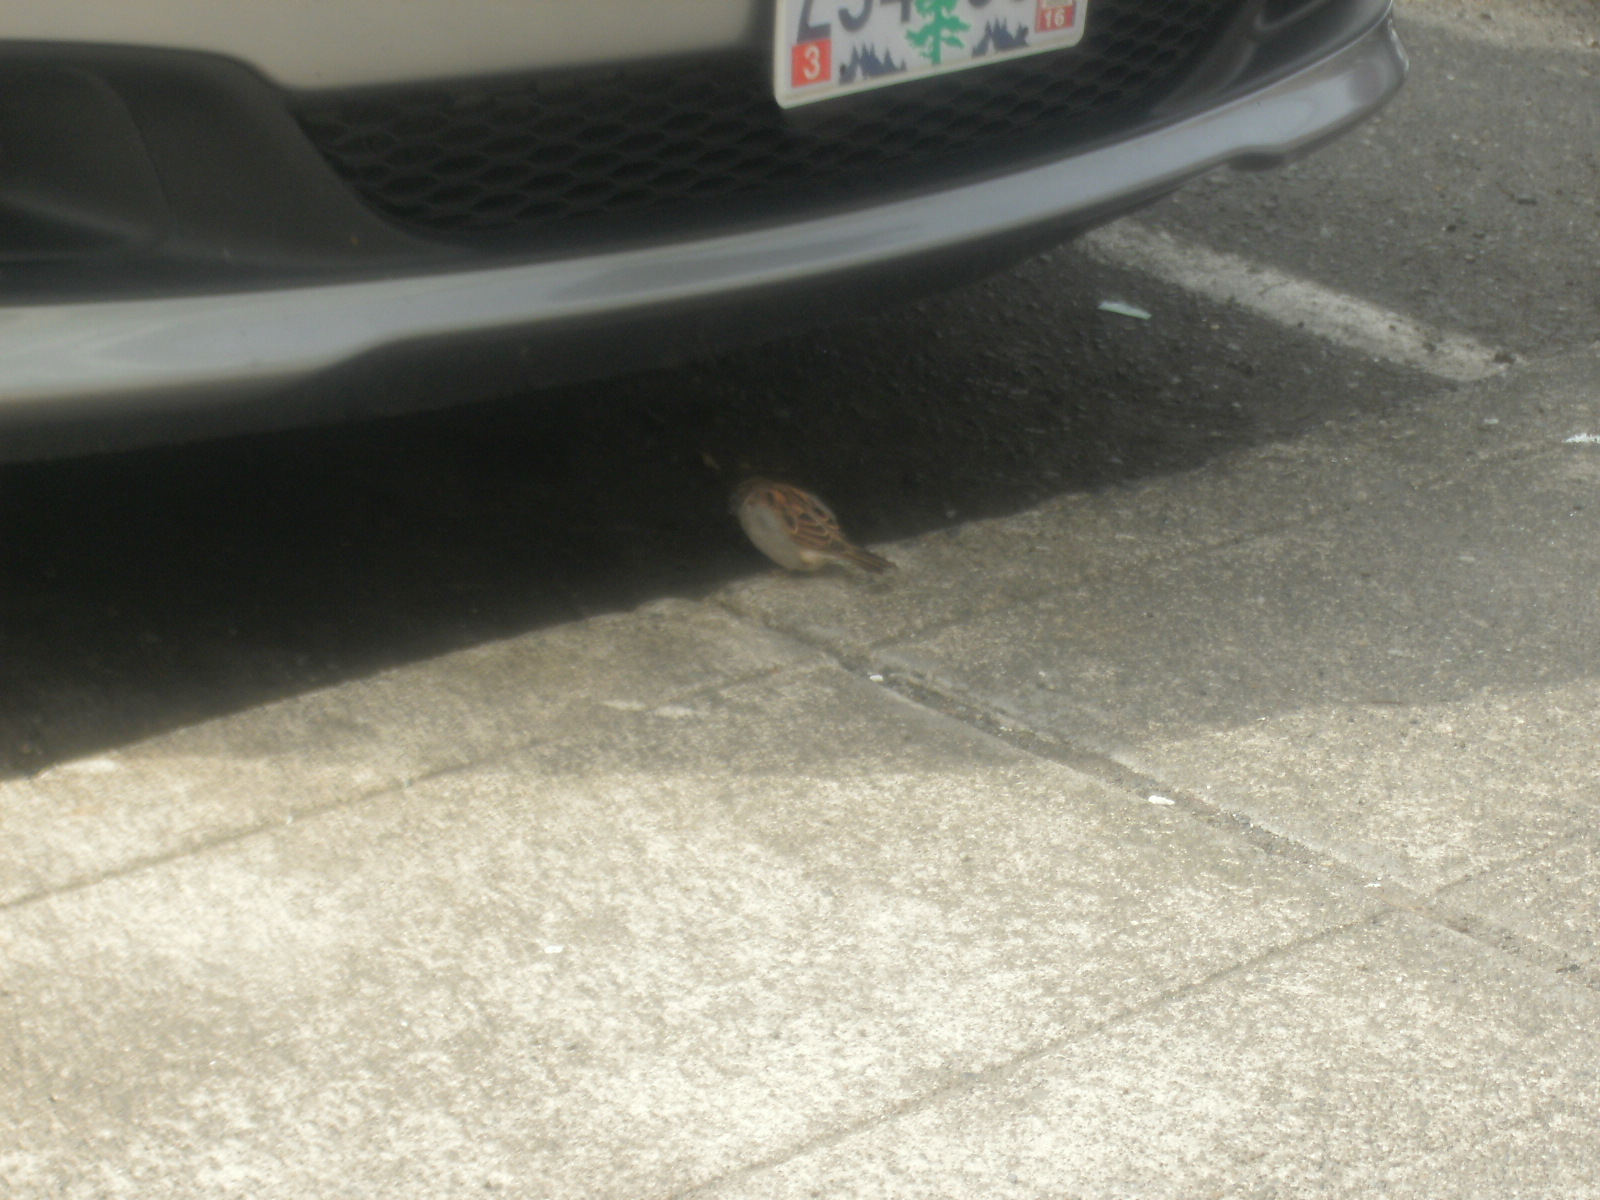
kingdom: Animalia
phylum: Chordata
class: Aves
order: Passeriformes
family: Passeridae
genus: Passer
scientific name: Passer domesticus
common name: House sparrow
